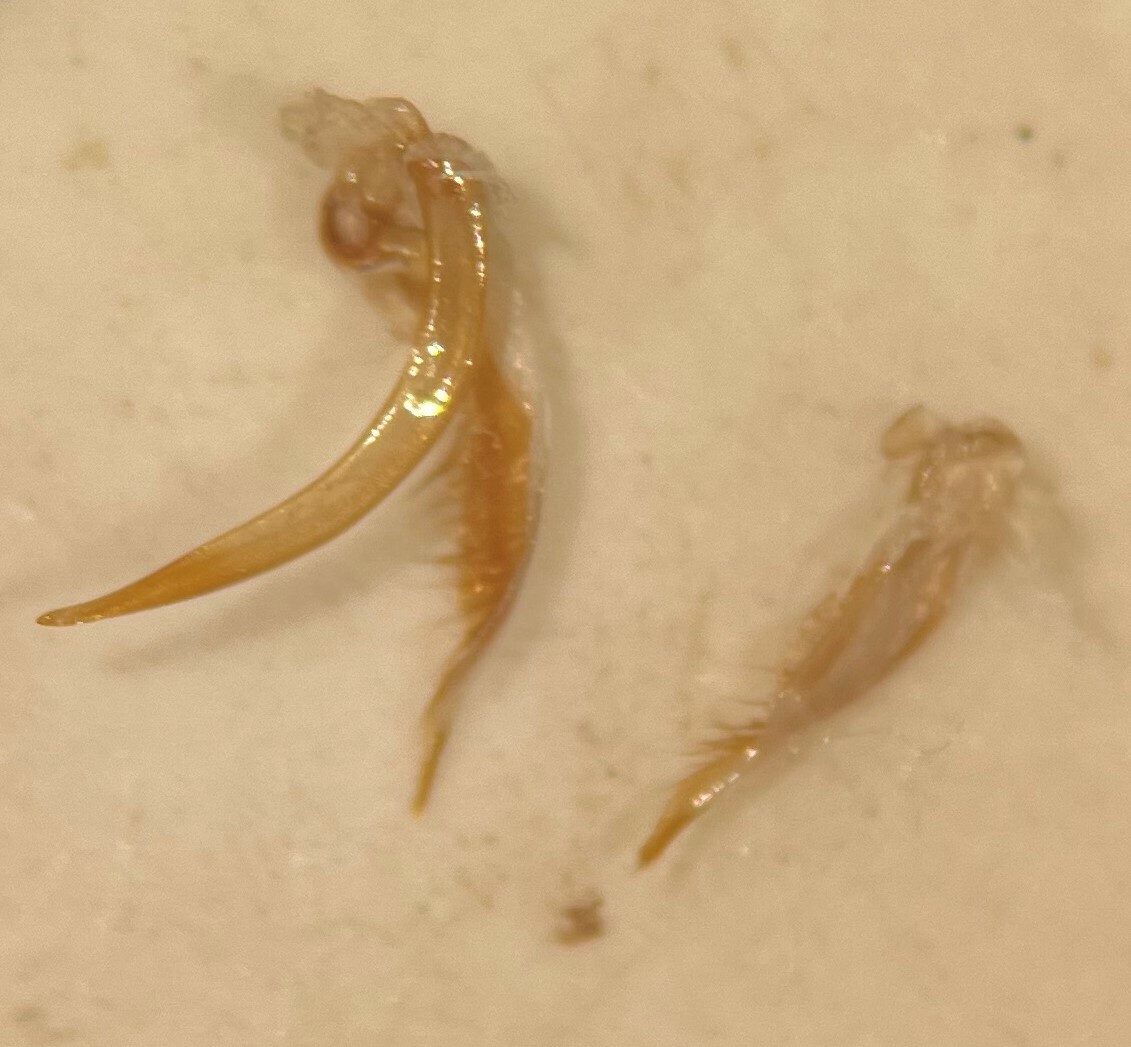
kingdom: Animalia
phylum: Arthropoda
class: Insecta
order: Coleoptera
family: Dytiscidae
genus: Ilybius
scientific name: Ilybius biguttulus
